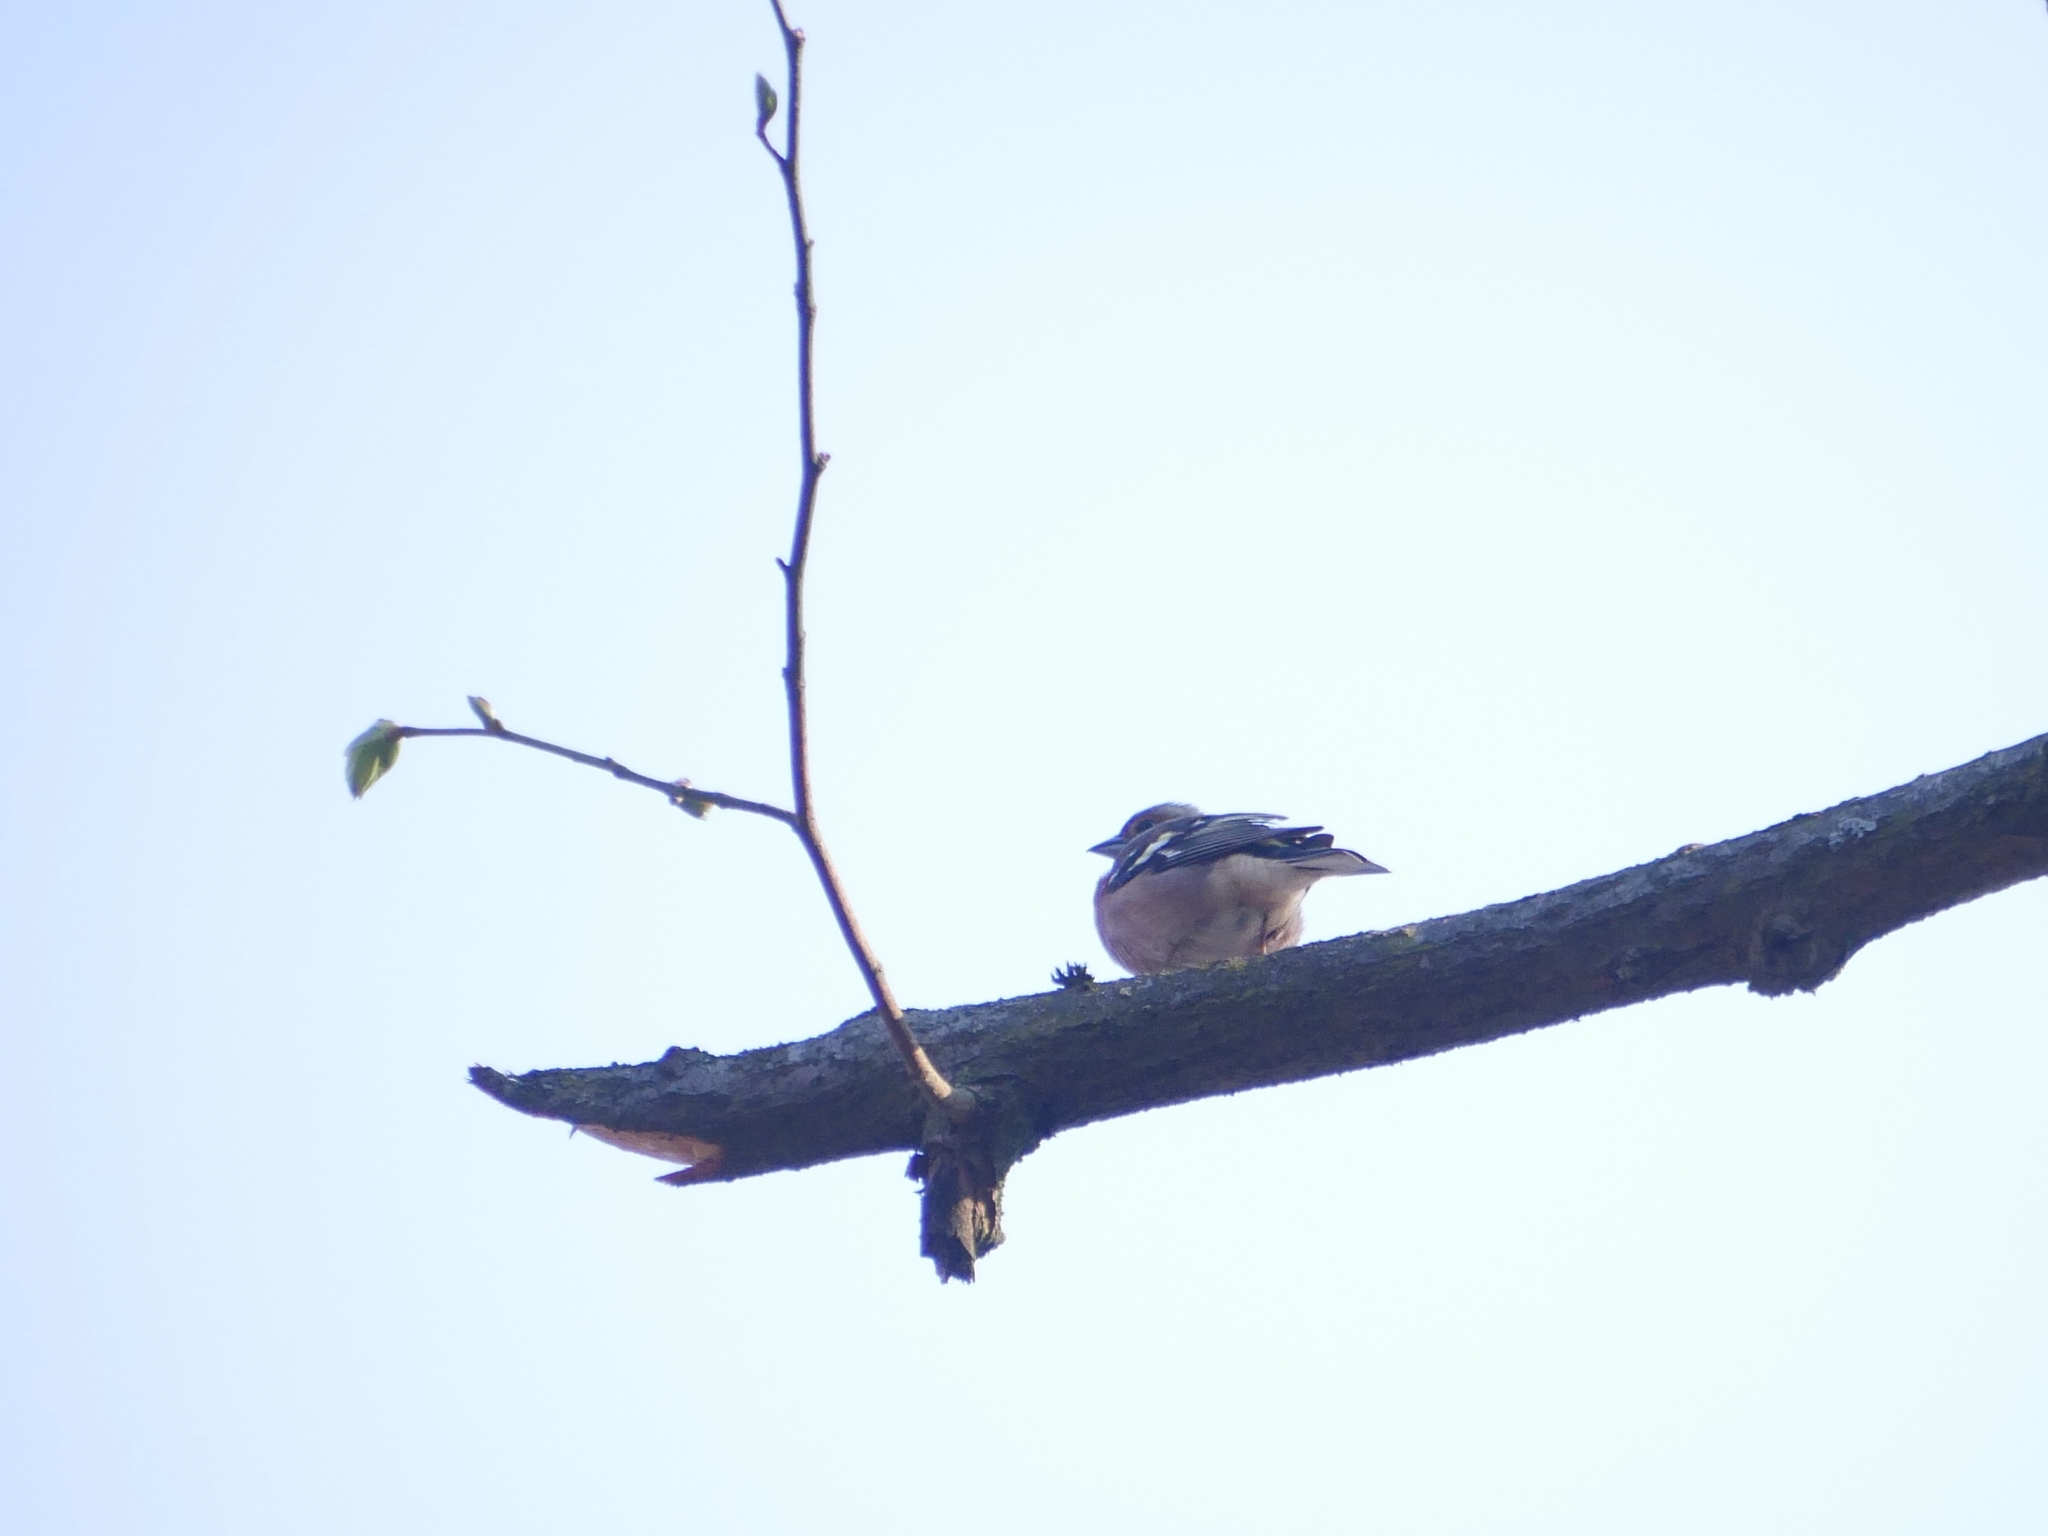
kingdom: Animalia
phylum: Chordata
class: Aves
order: Passeriformes
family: Fringillidae
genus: Fringilla
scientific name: Fringilla coelebs
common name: Common chaffinch
